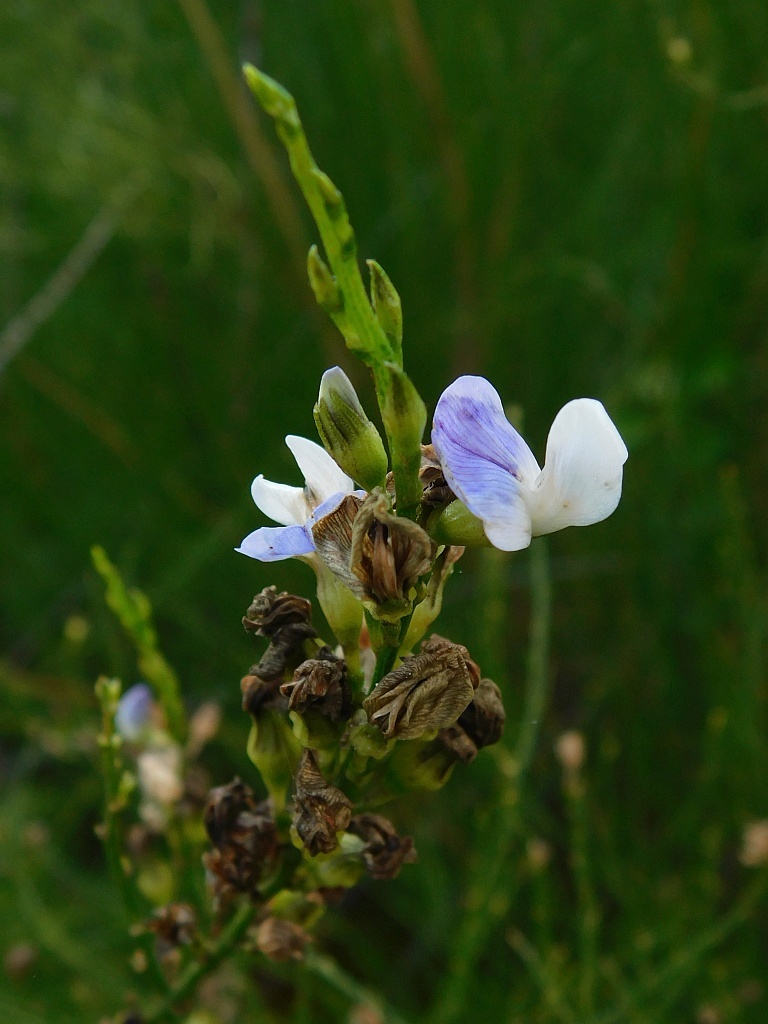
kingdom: Plantae
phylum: Tracheophyta
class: Magnoliopsida
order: Fabales
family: Fabaceae
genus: Psoralea
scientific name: Psoralea usitata
